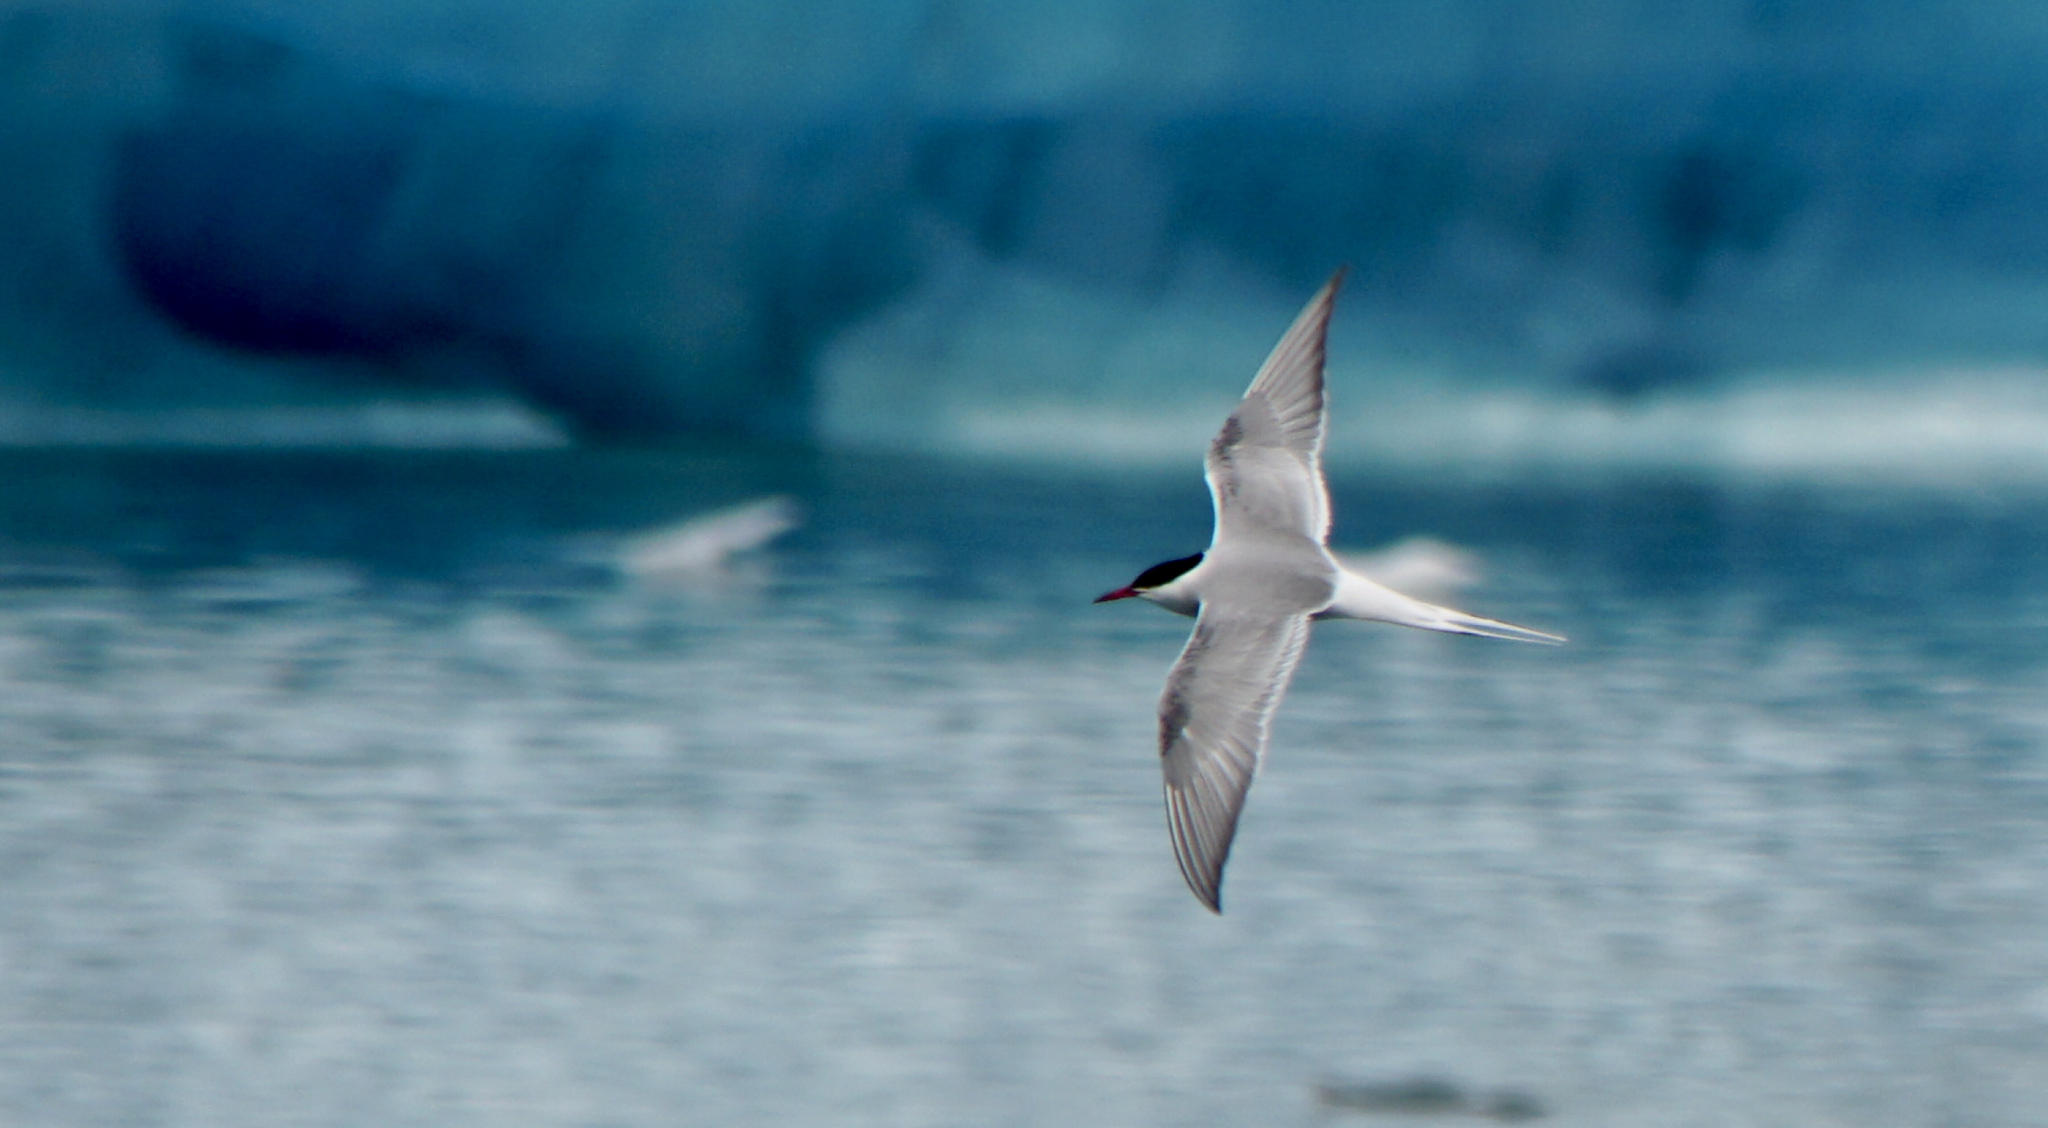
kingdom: Animalia
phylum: Chordata
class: Aves
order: Charadriiformes
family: Laridae
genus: Sterna
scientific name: Sterna paradisaea
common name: Arctic tern
